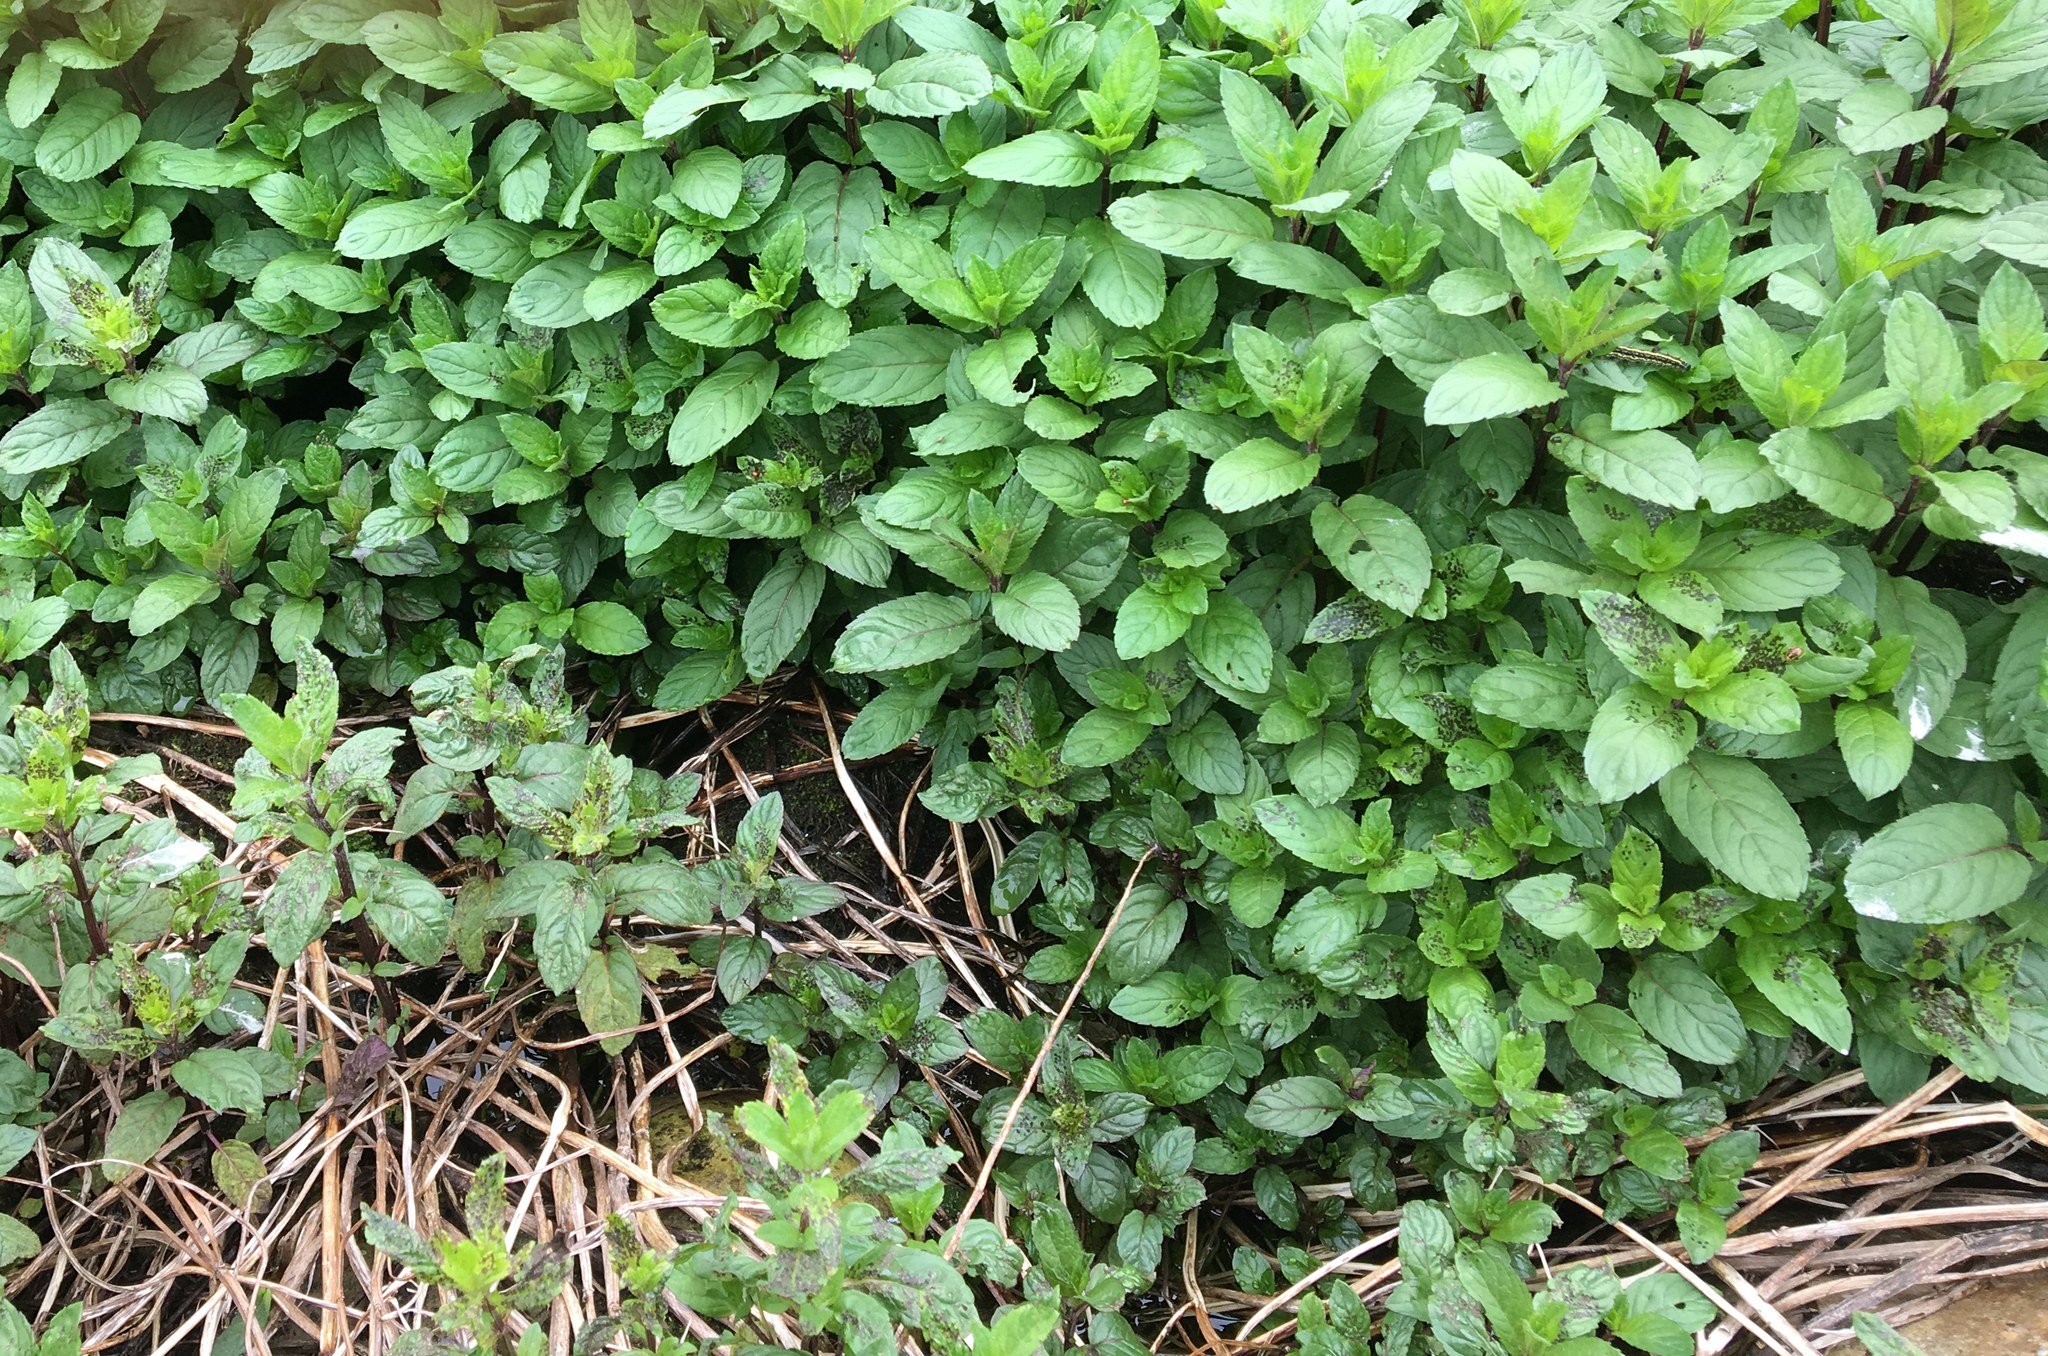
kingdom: Plantae
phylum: Tracheophyta
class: Magnoliopsida
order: Lamiales
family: Lamiaceae
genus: Mentha
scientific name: Mentha piperita
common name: Peppermint
